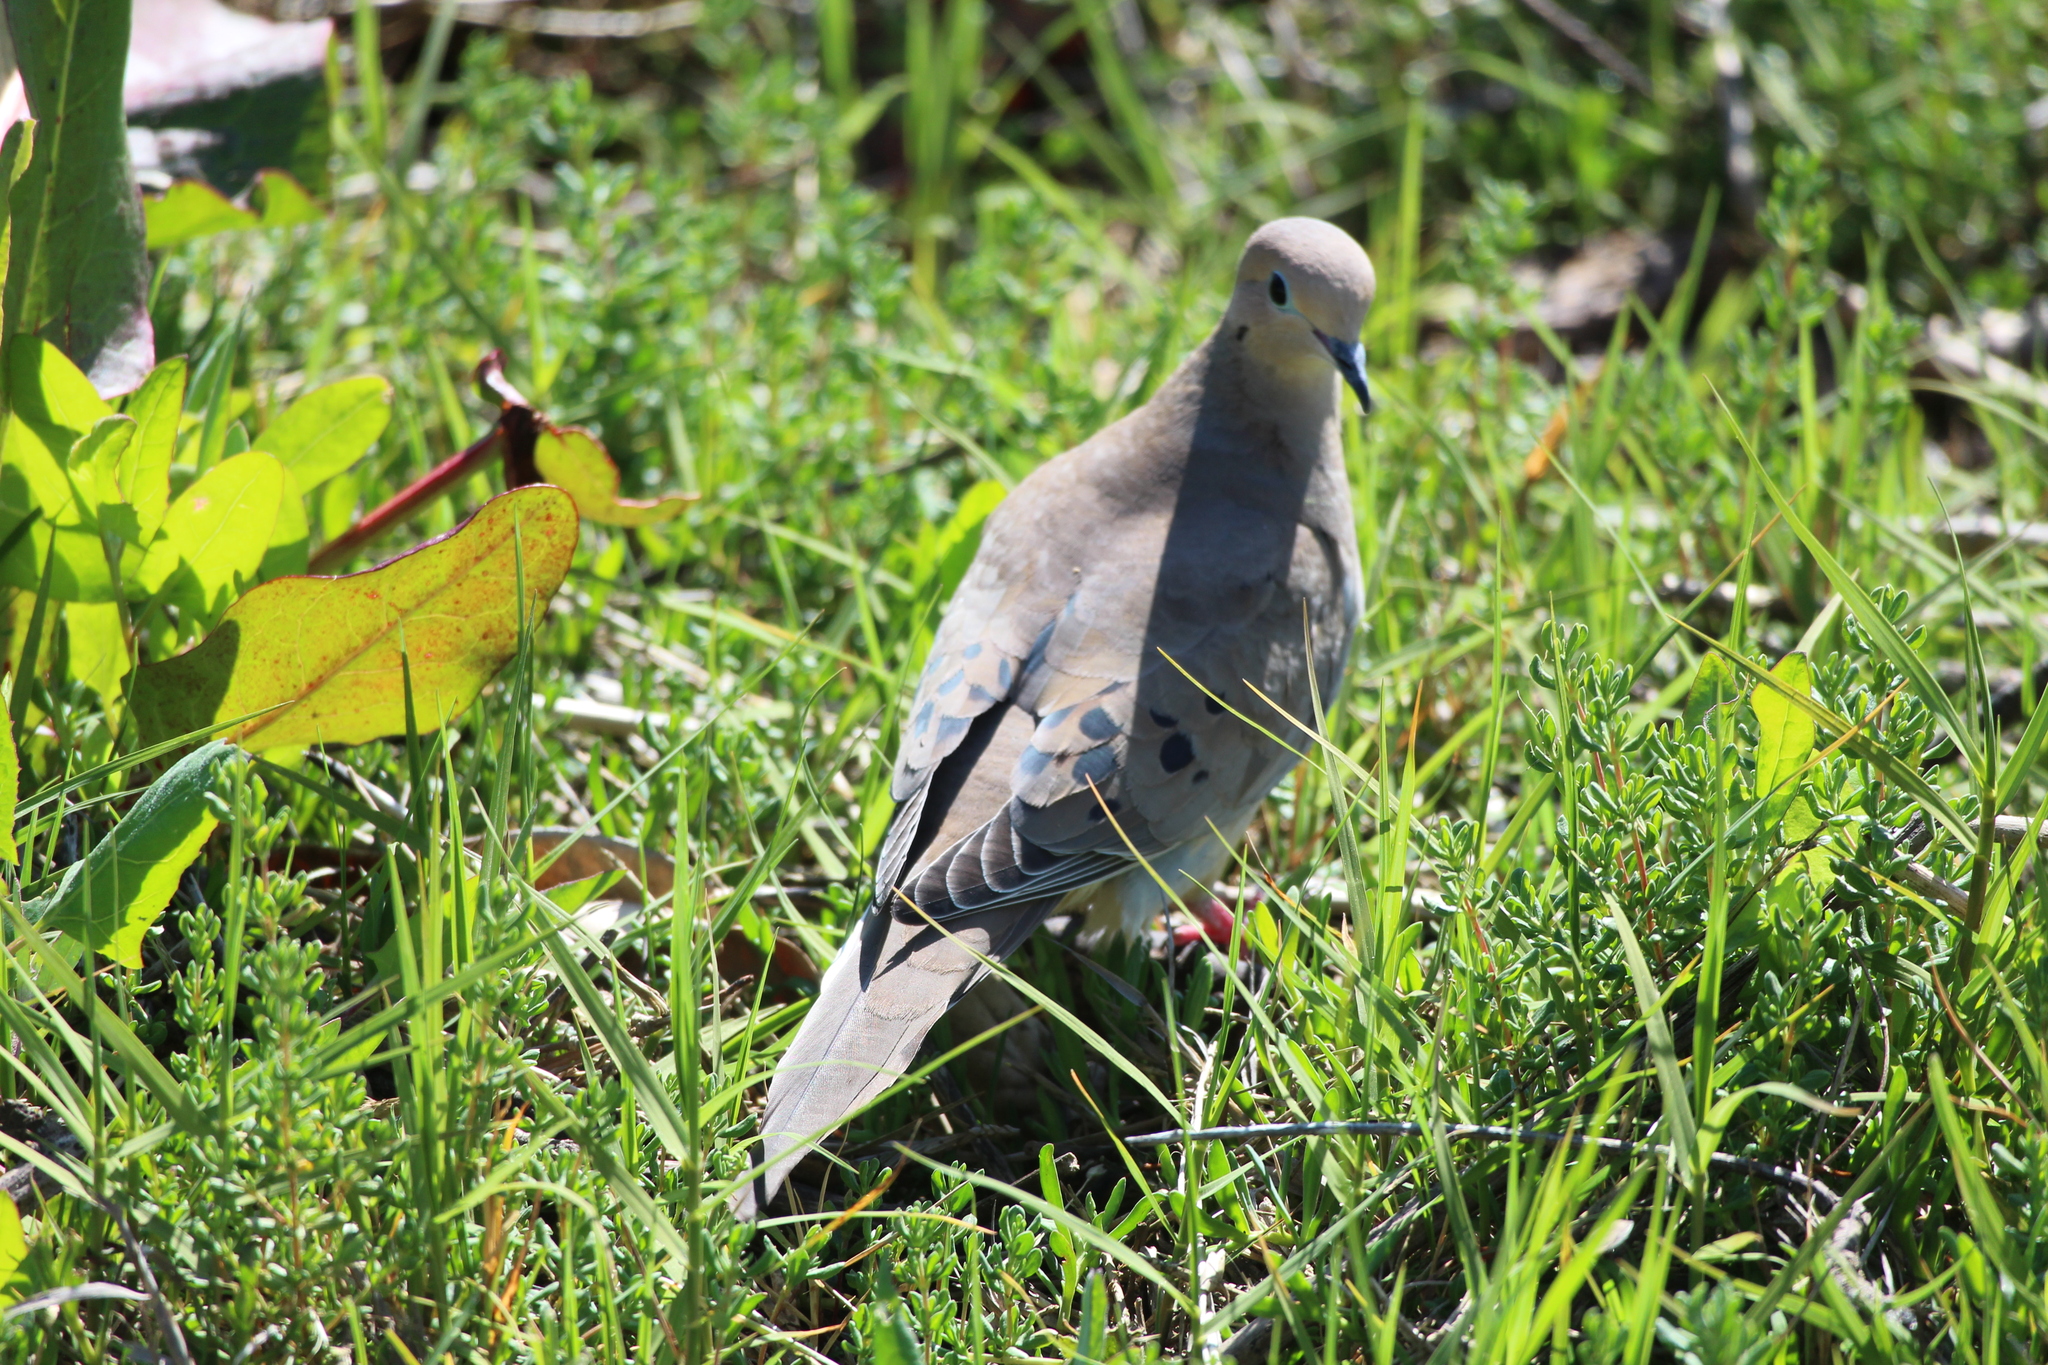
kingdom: Animalia
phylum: Chordata
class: Aves
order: Columbiformes
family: Columbidae
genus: Zenaida
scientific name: Zenaida macroura
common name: Mourning dove
